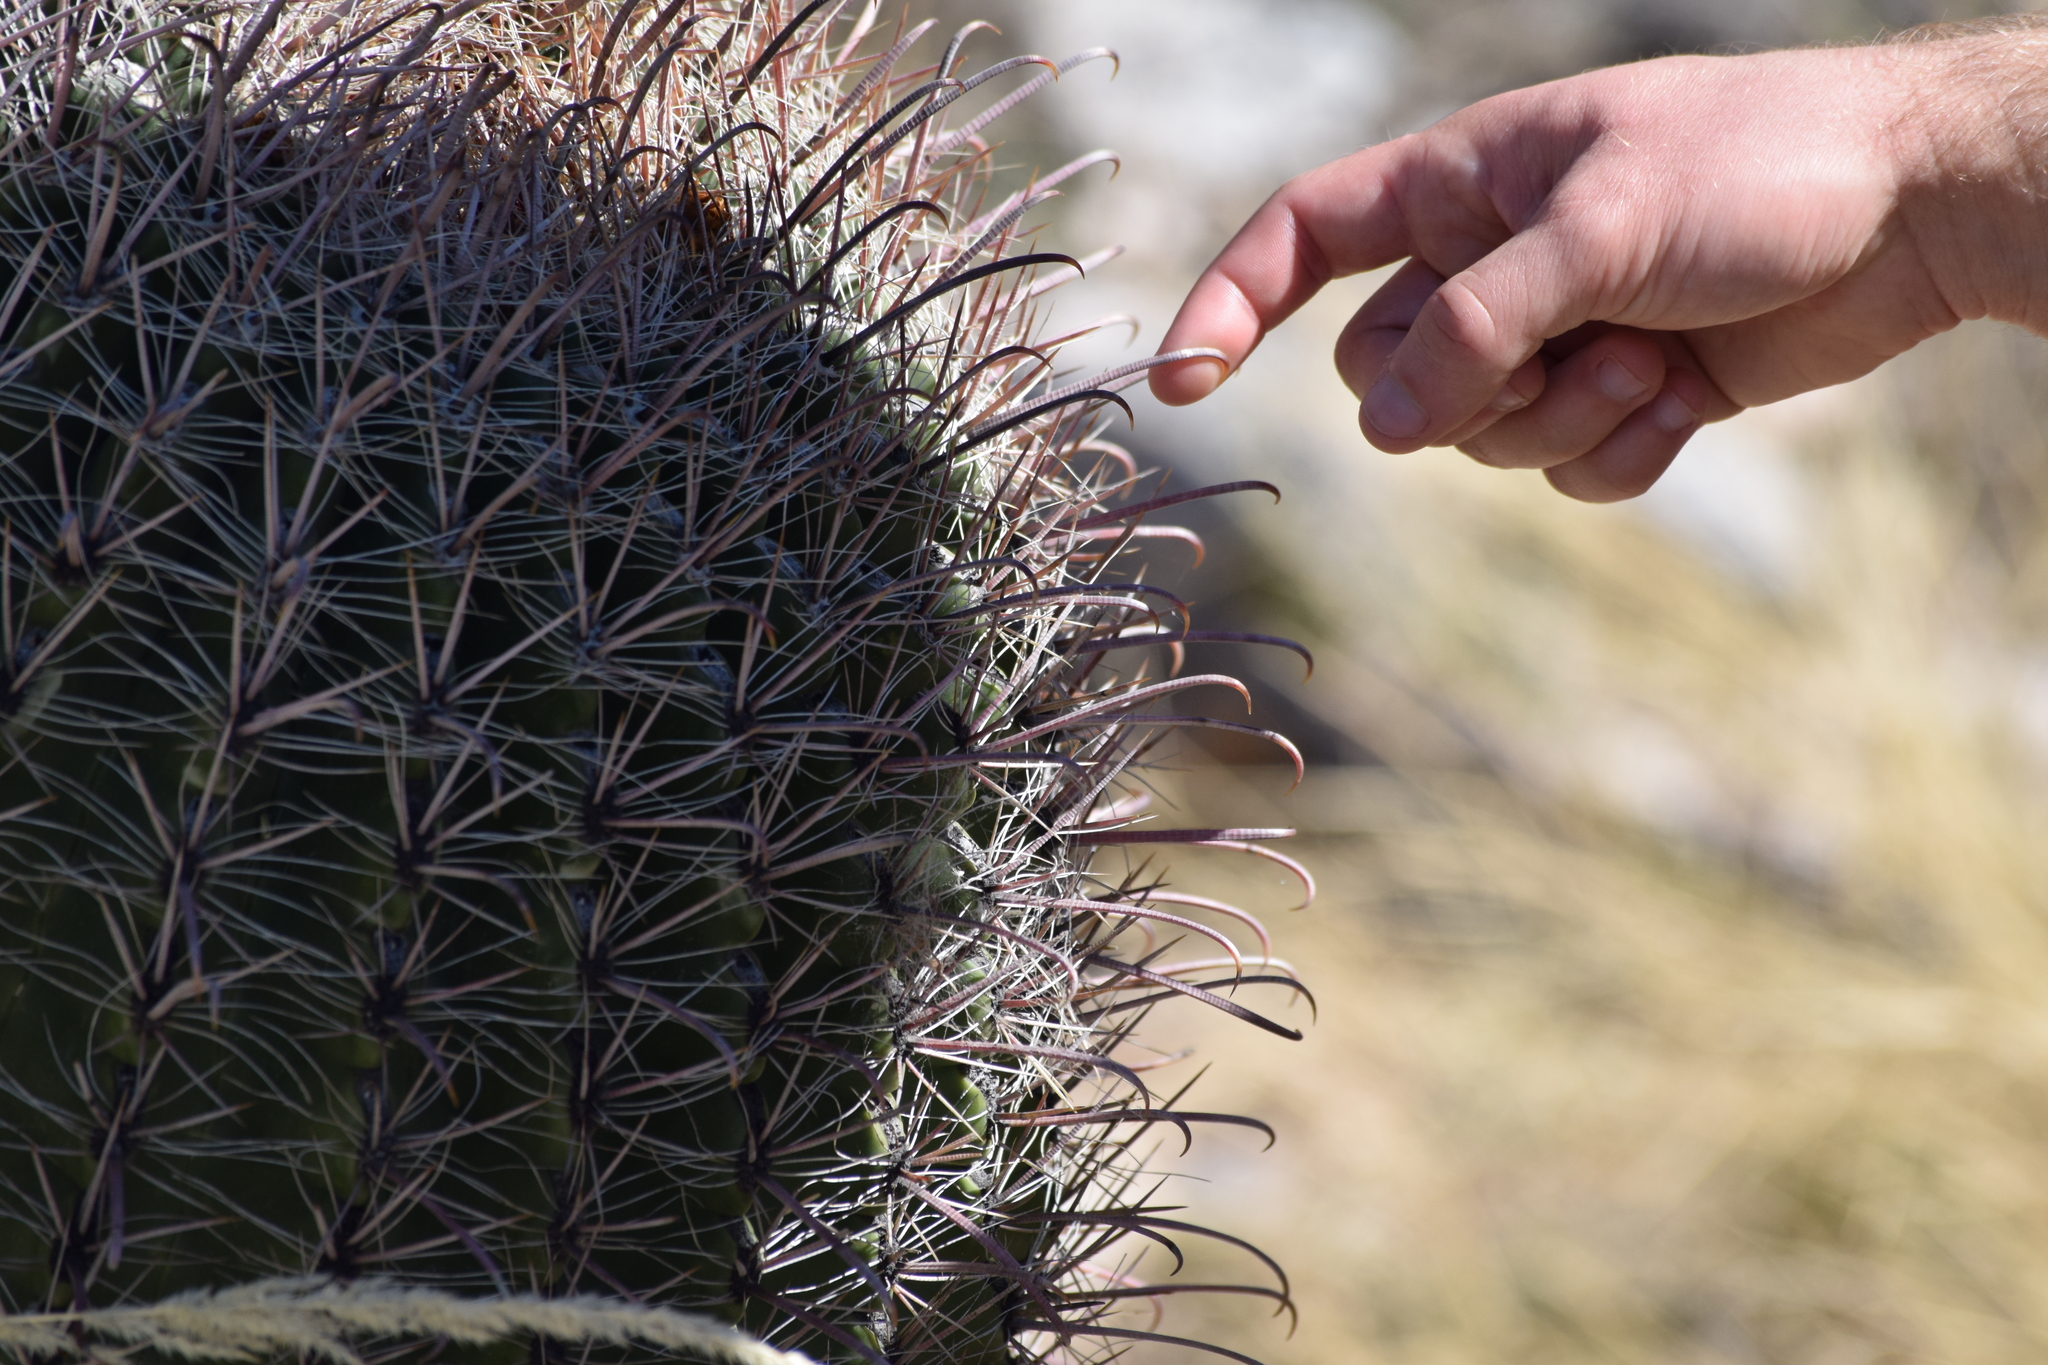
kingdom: Plantae
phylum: Tracheophyta
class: Magnoliopsida
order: Caryophyllales
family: Cactaceae
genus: Ferocactus
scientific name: Ferocactus wislizeni
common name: Candy barrel cactus
